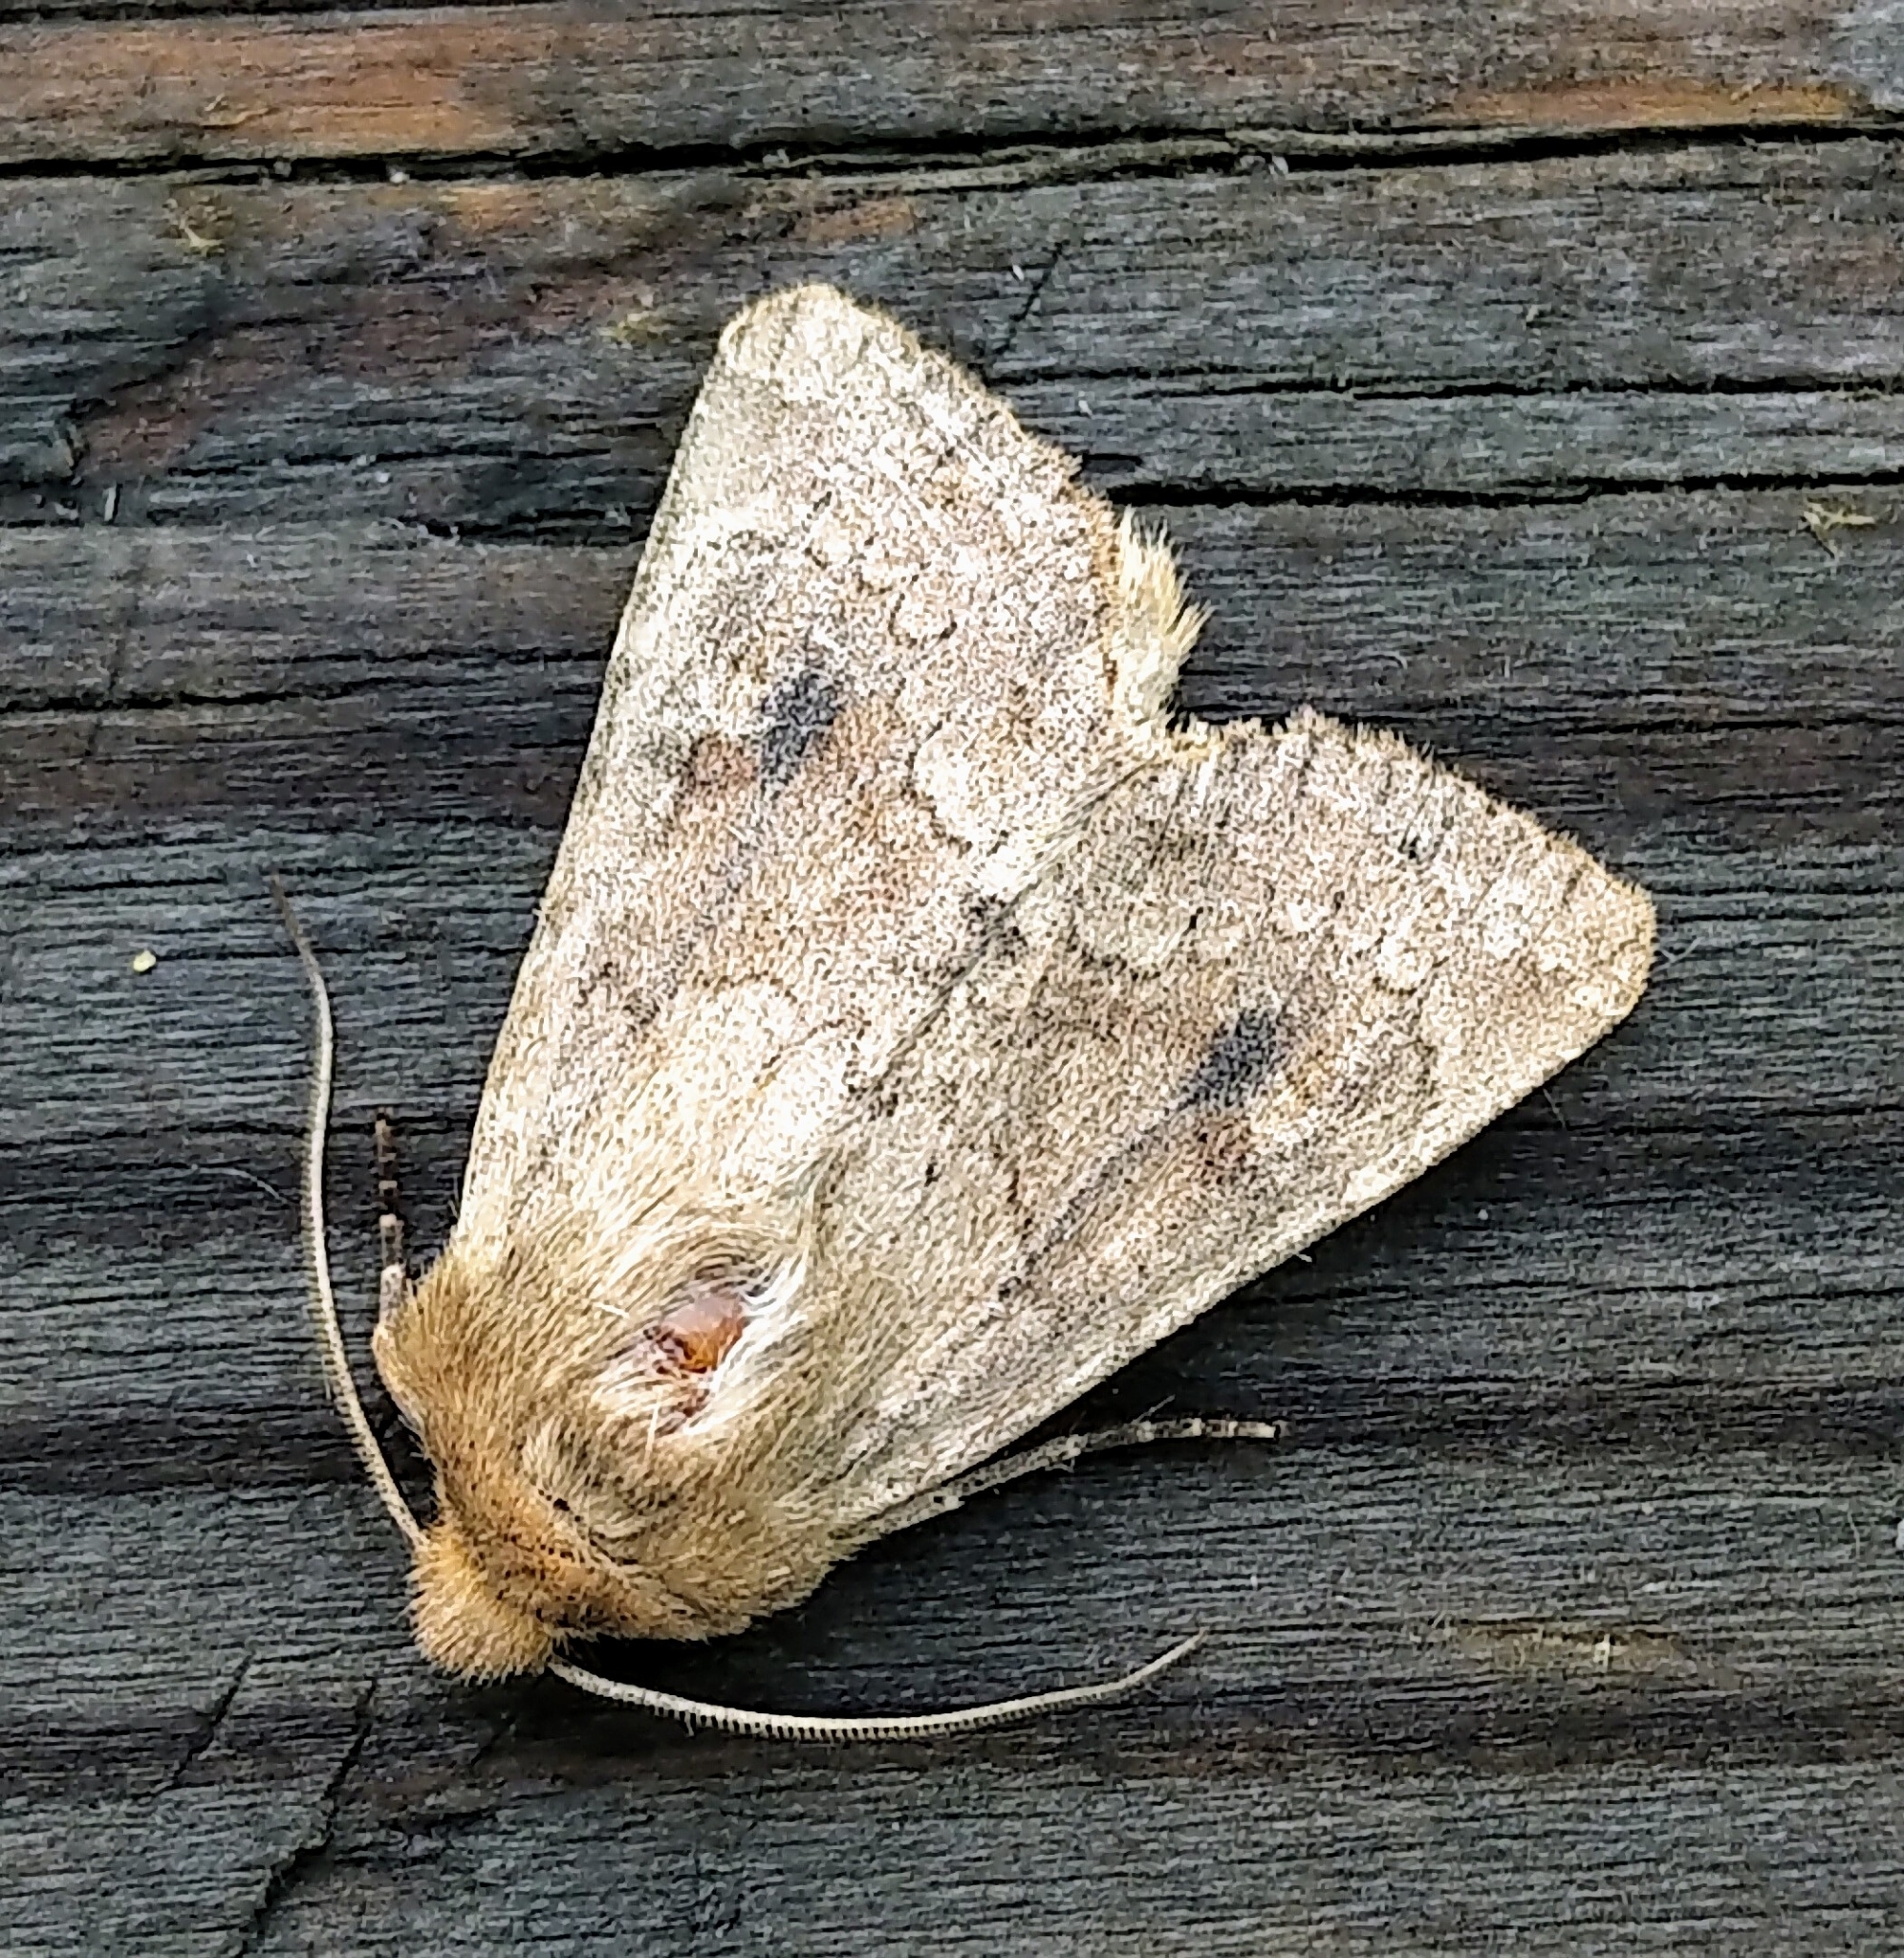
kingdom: Animalia
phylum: Arthropoda
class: Insecta
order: Lepidoptera
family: Noctuidae
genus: Apamea
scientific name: Apamea inficita
